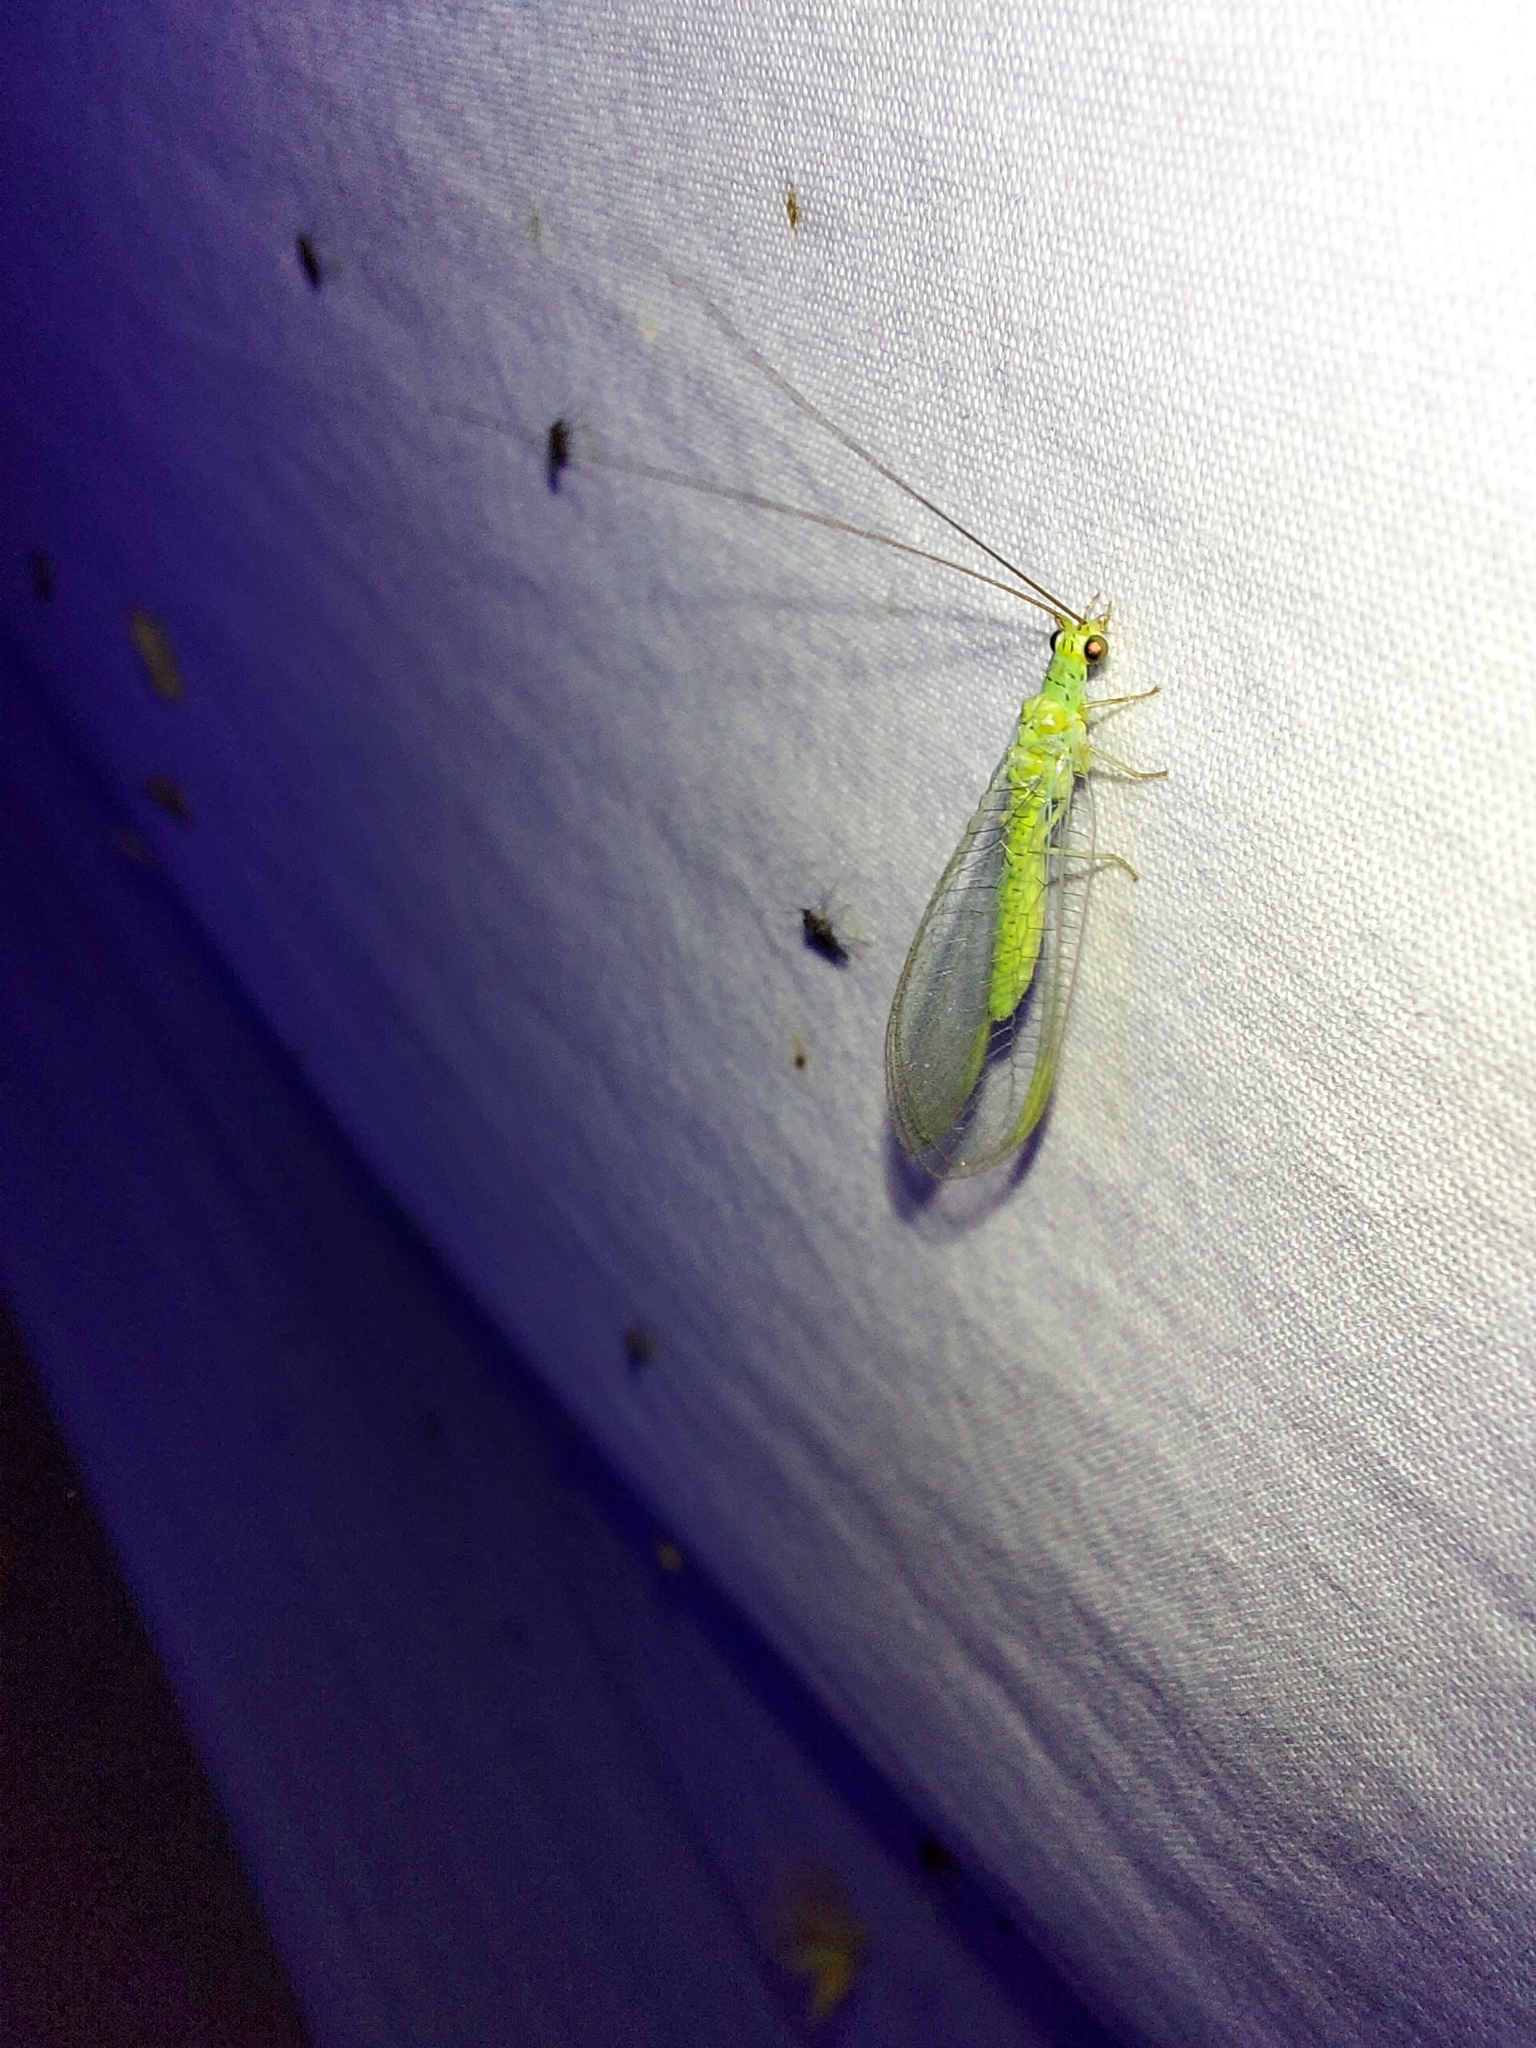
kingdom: Animalia
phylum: Arthropoda
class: Insecta
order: Neuroptera
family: Chrysopidae
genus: Plesiochrysa
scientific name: Plesiochrysa ramburi
